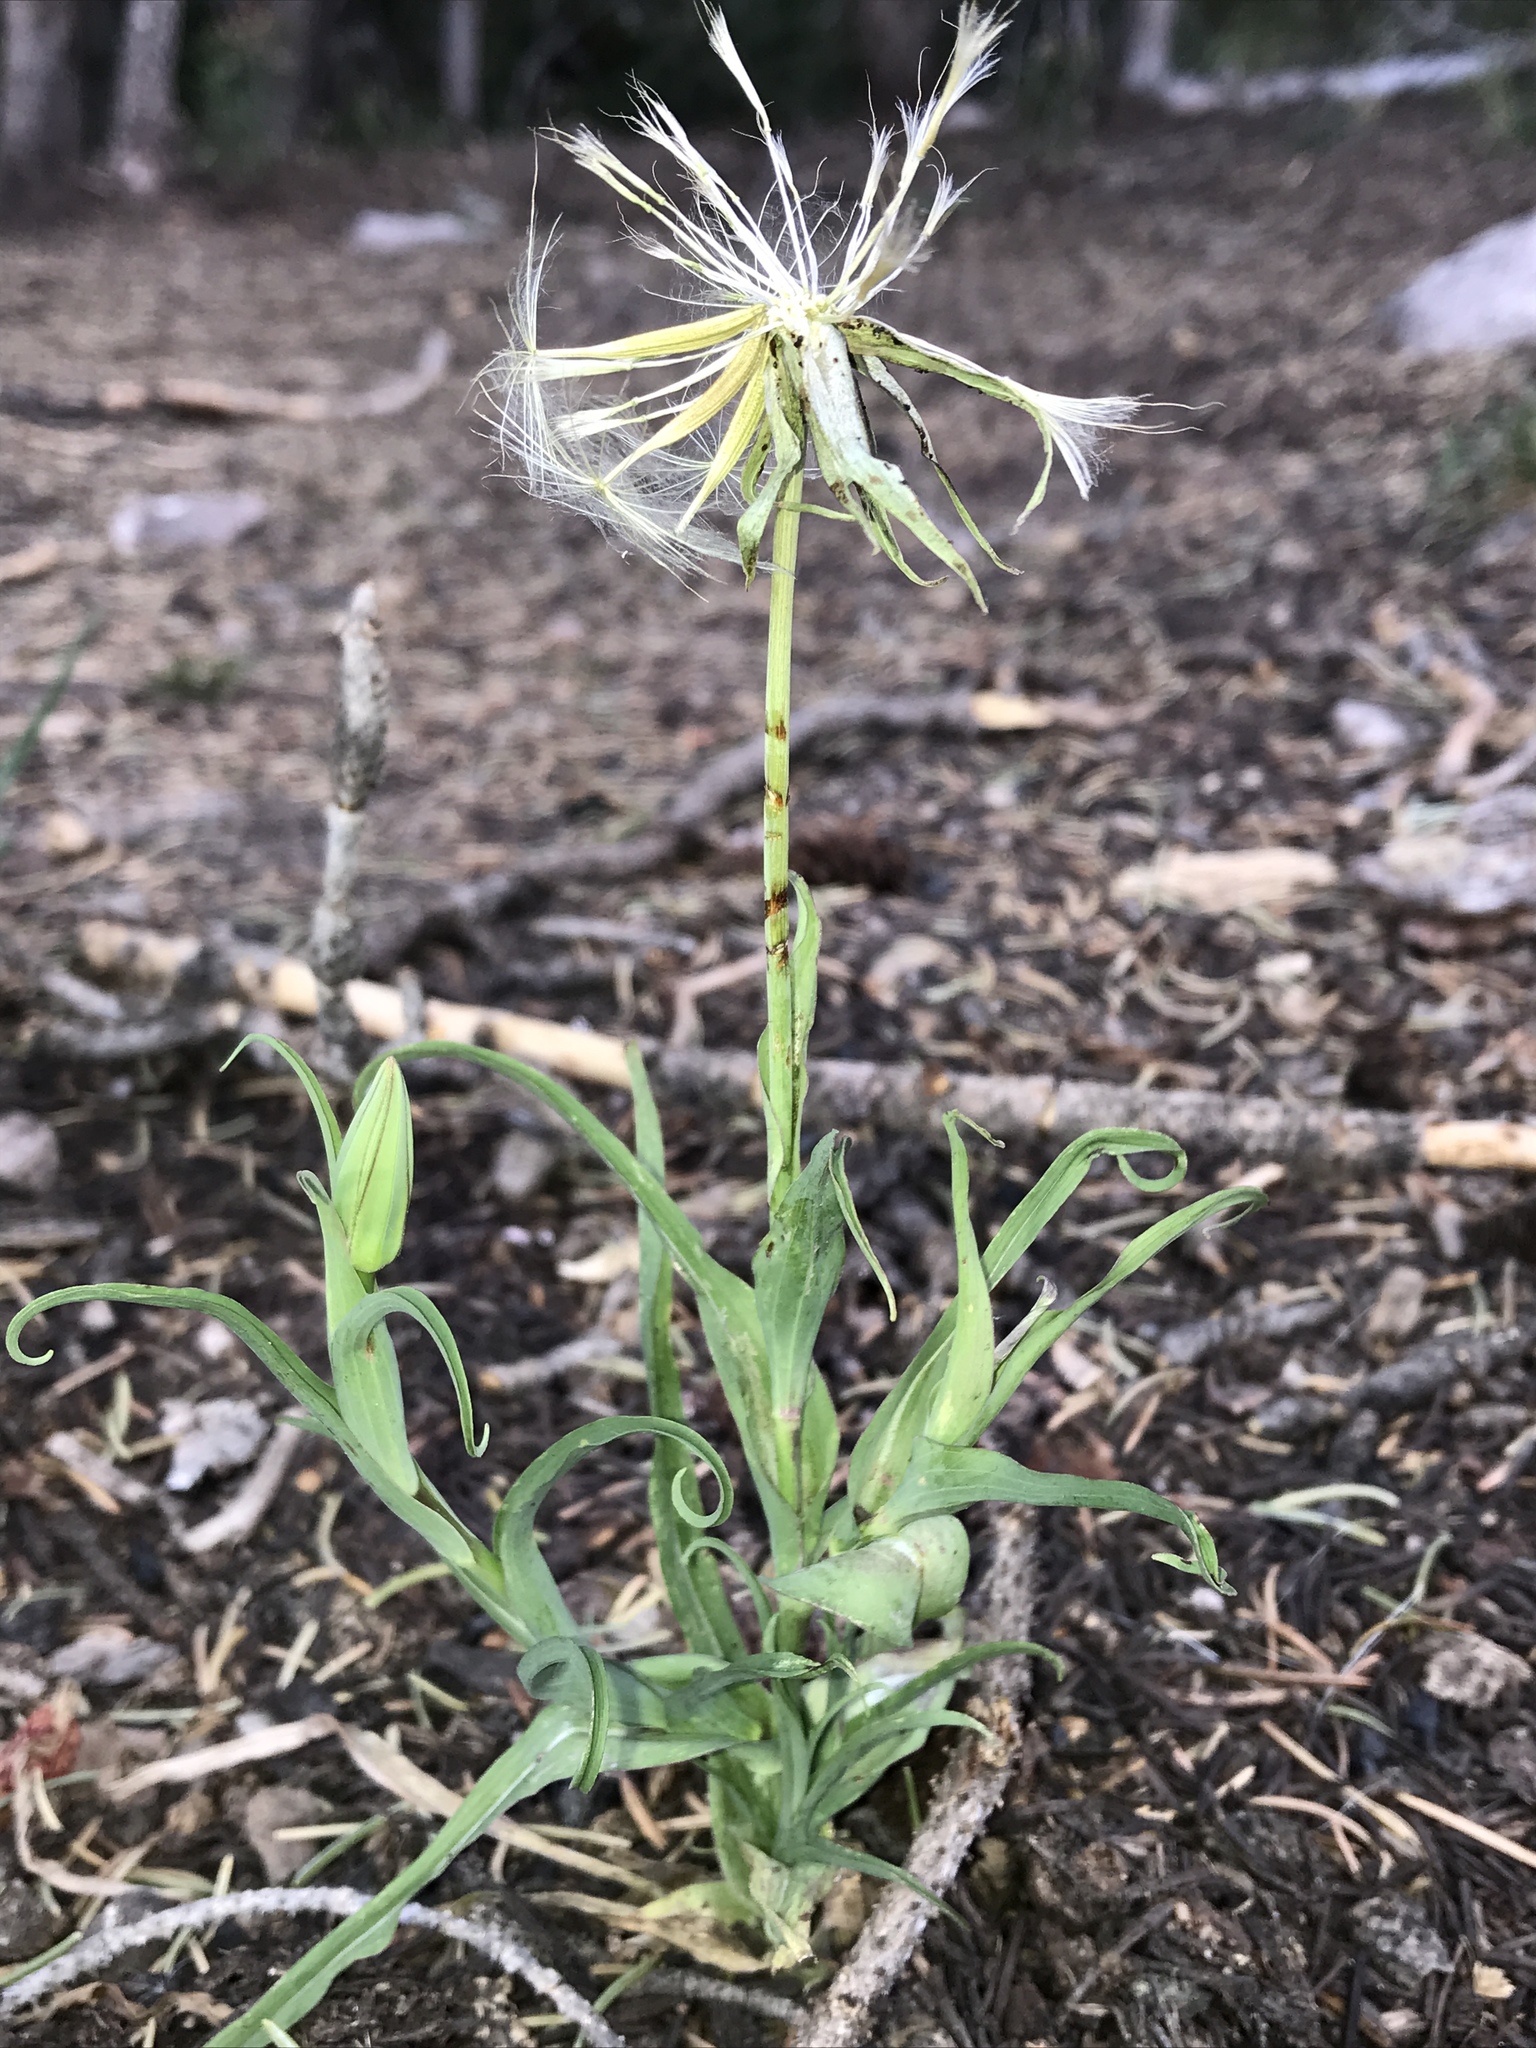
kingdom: Plantae
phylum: Tracheophyta
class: Magnoliopsida
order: Asterales
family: Asteraceae
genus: Tragopogon
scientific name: Tragopogon dubius
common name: Yellow salsify
